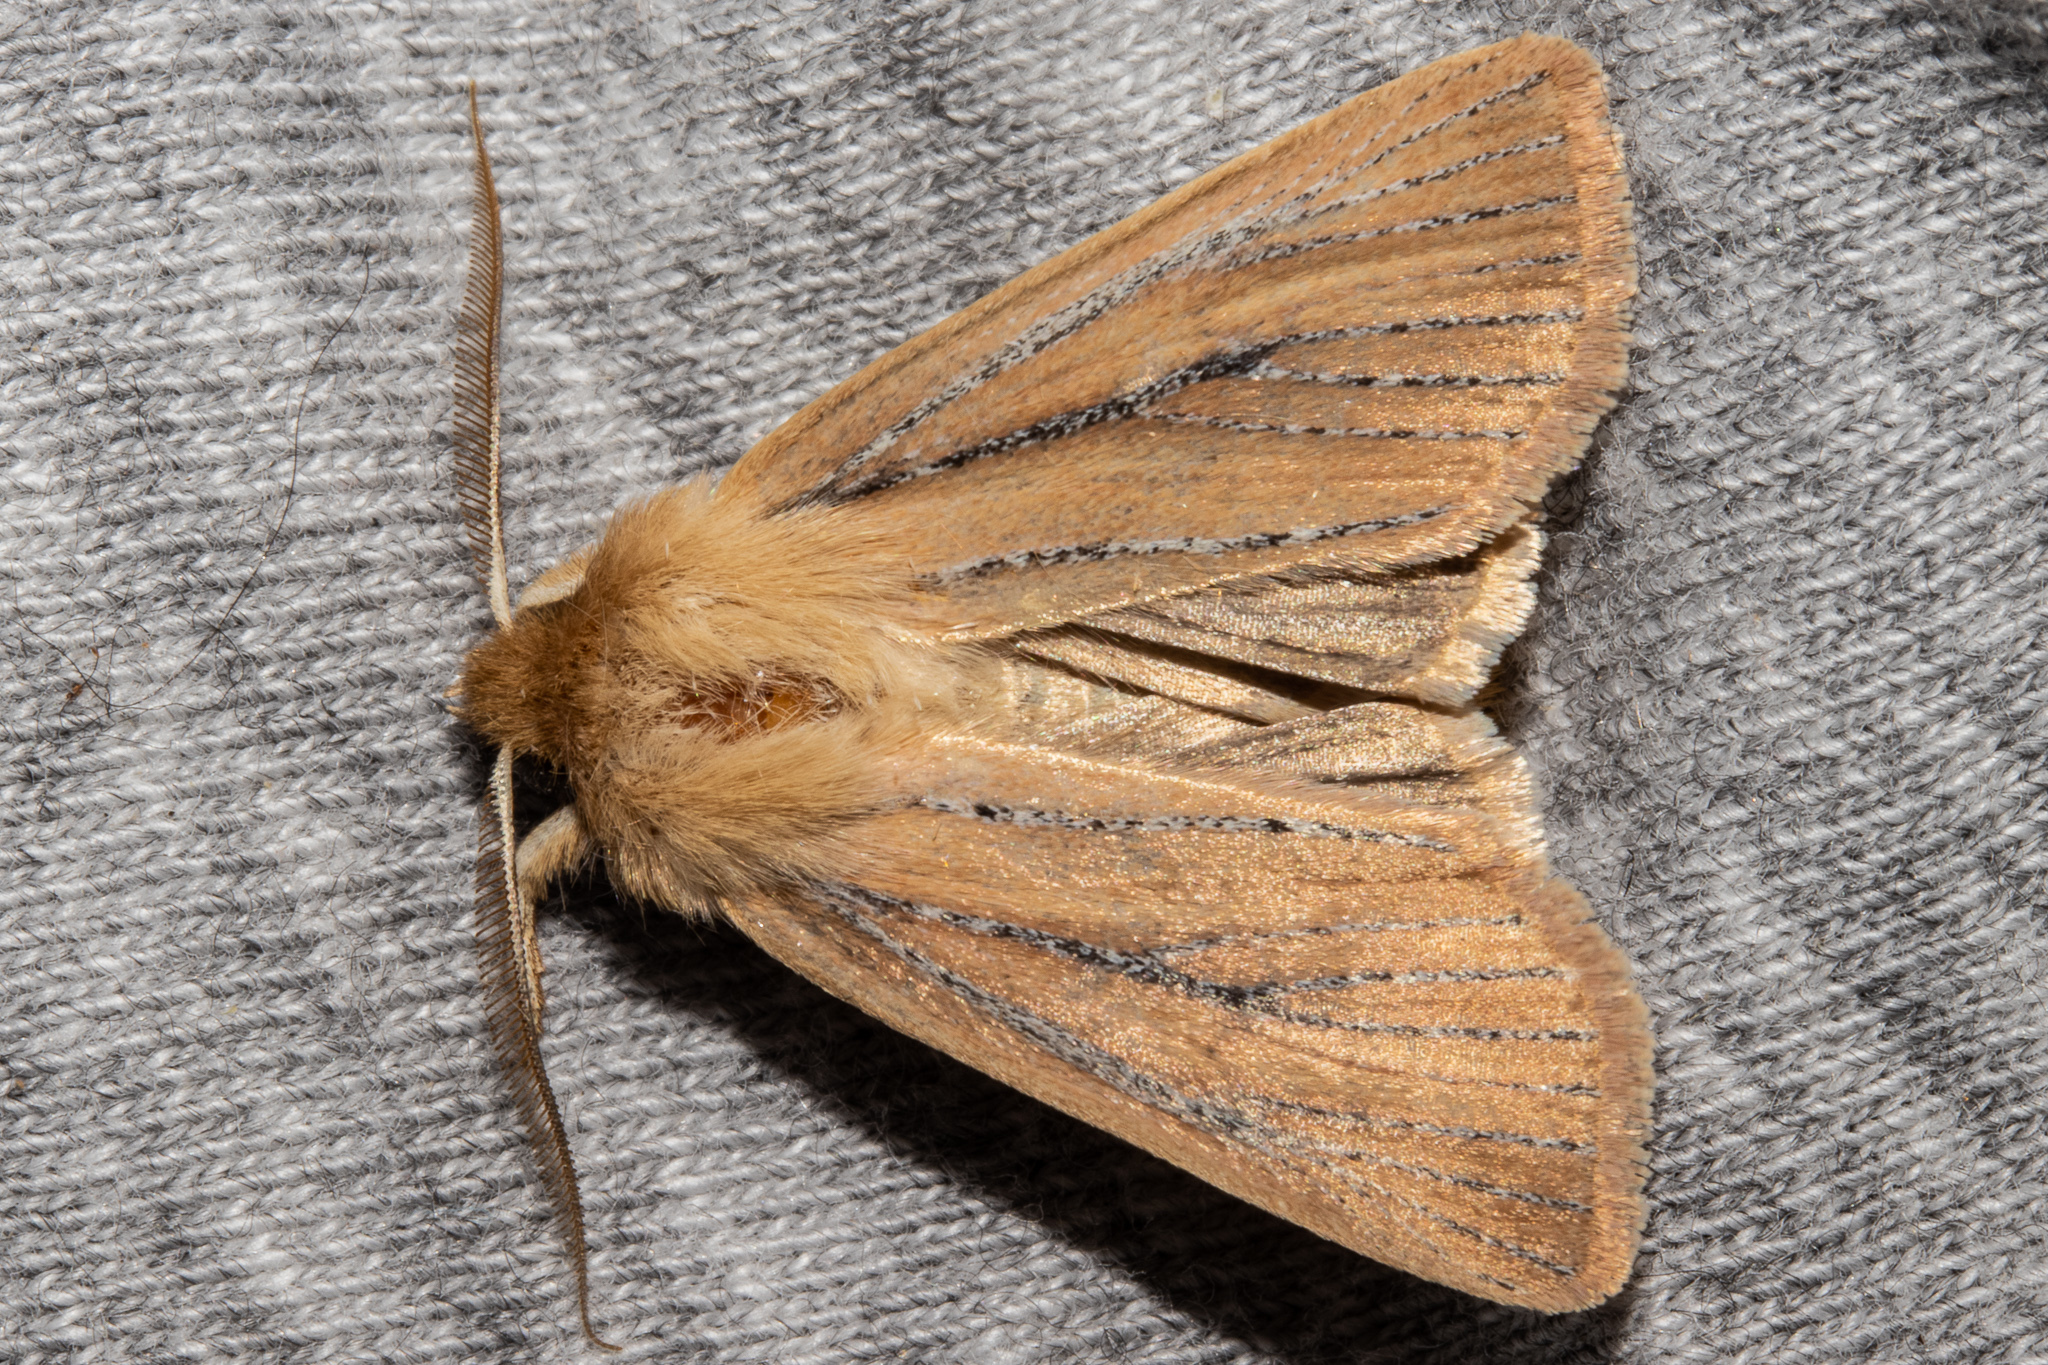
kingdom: Animalia
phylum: Arthropoda
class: Insecta
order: Lepidoptera
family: Noctuidae
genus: Ichneutica
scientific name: Ichneutica
